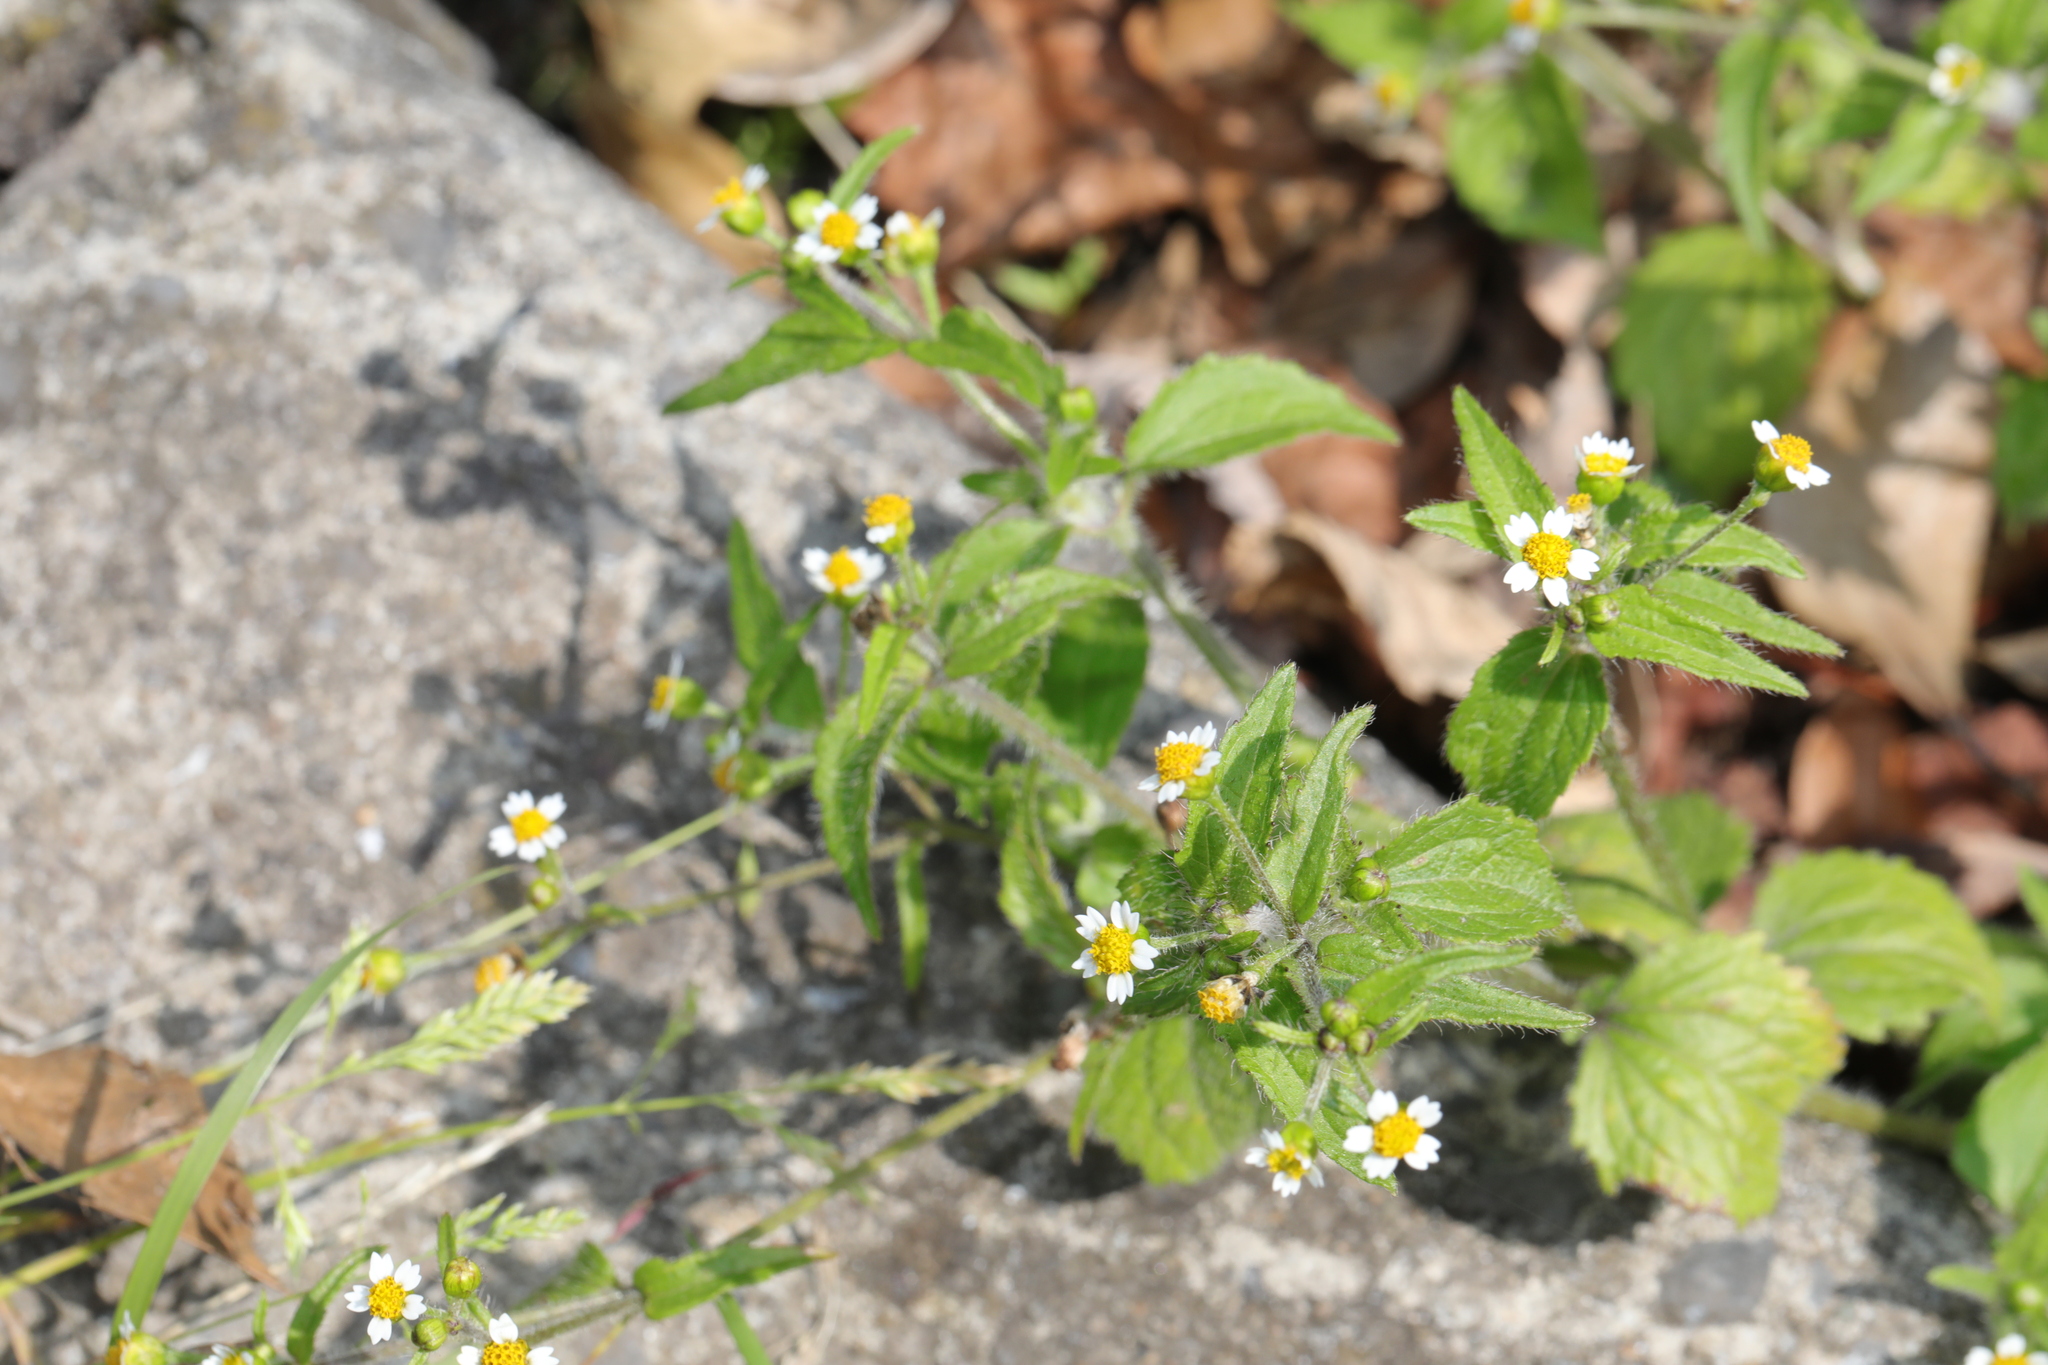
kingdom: Plantae
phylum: Tracheophyta
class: Magnoliopsida
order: Asterales
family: Asteraceae
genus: Galinsoga
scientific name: Galinsoga quadriradiata
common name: Shaggy soldier
